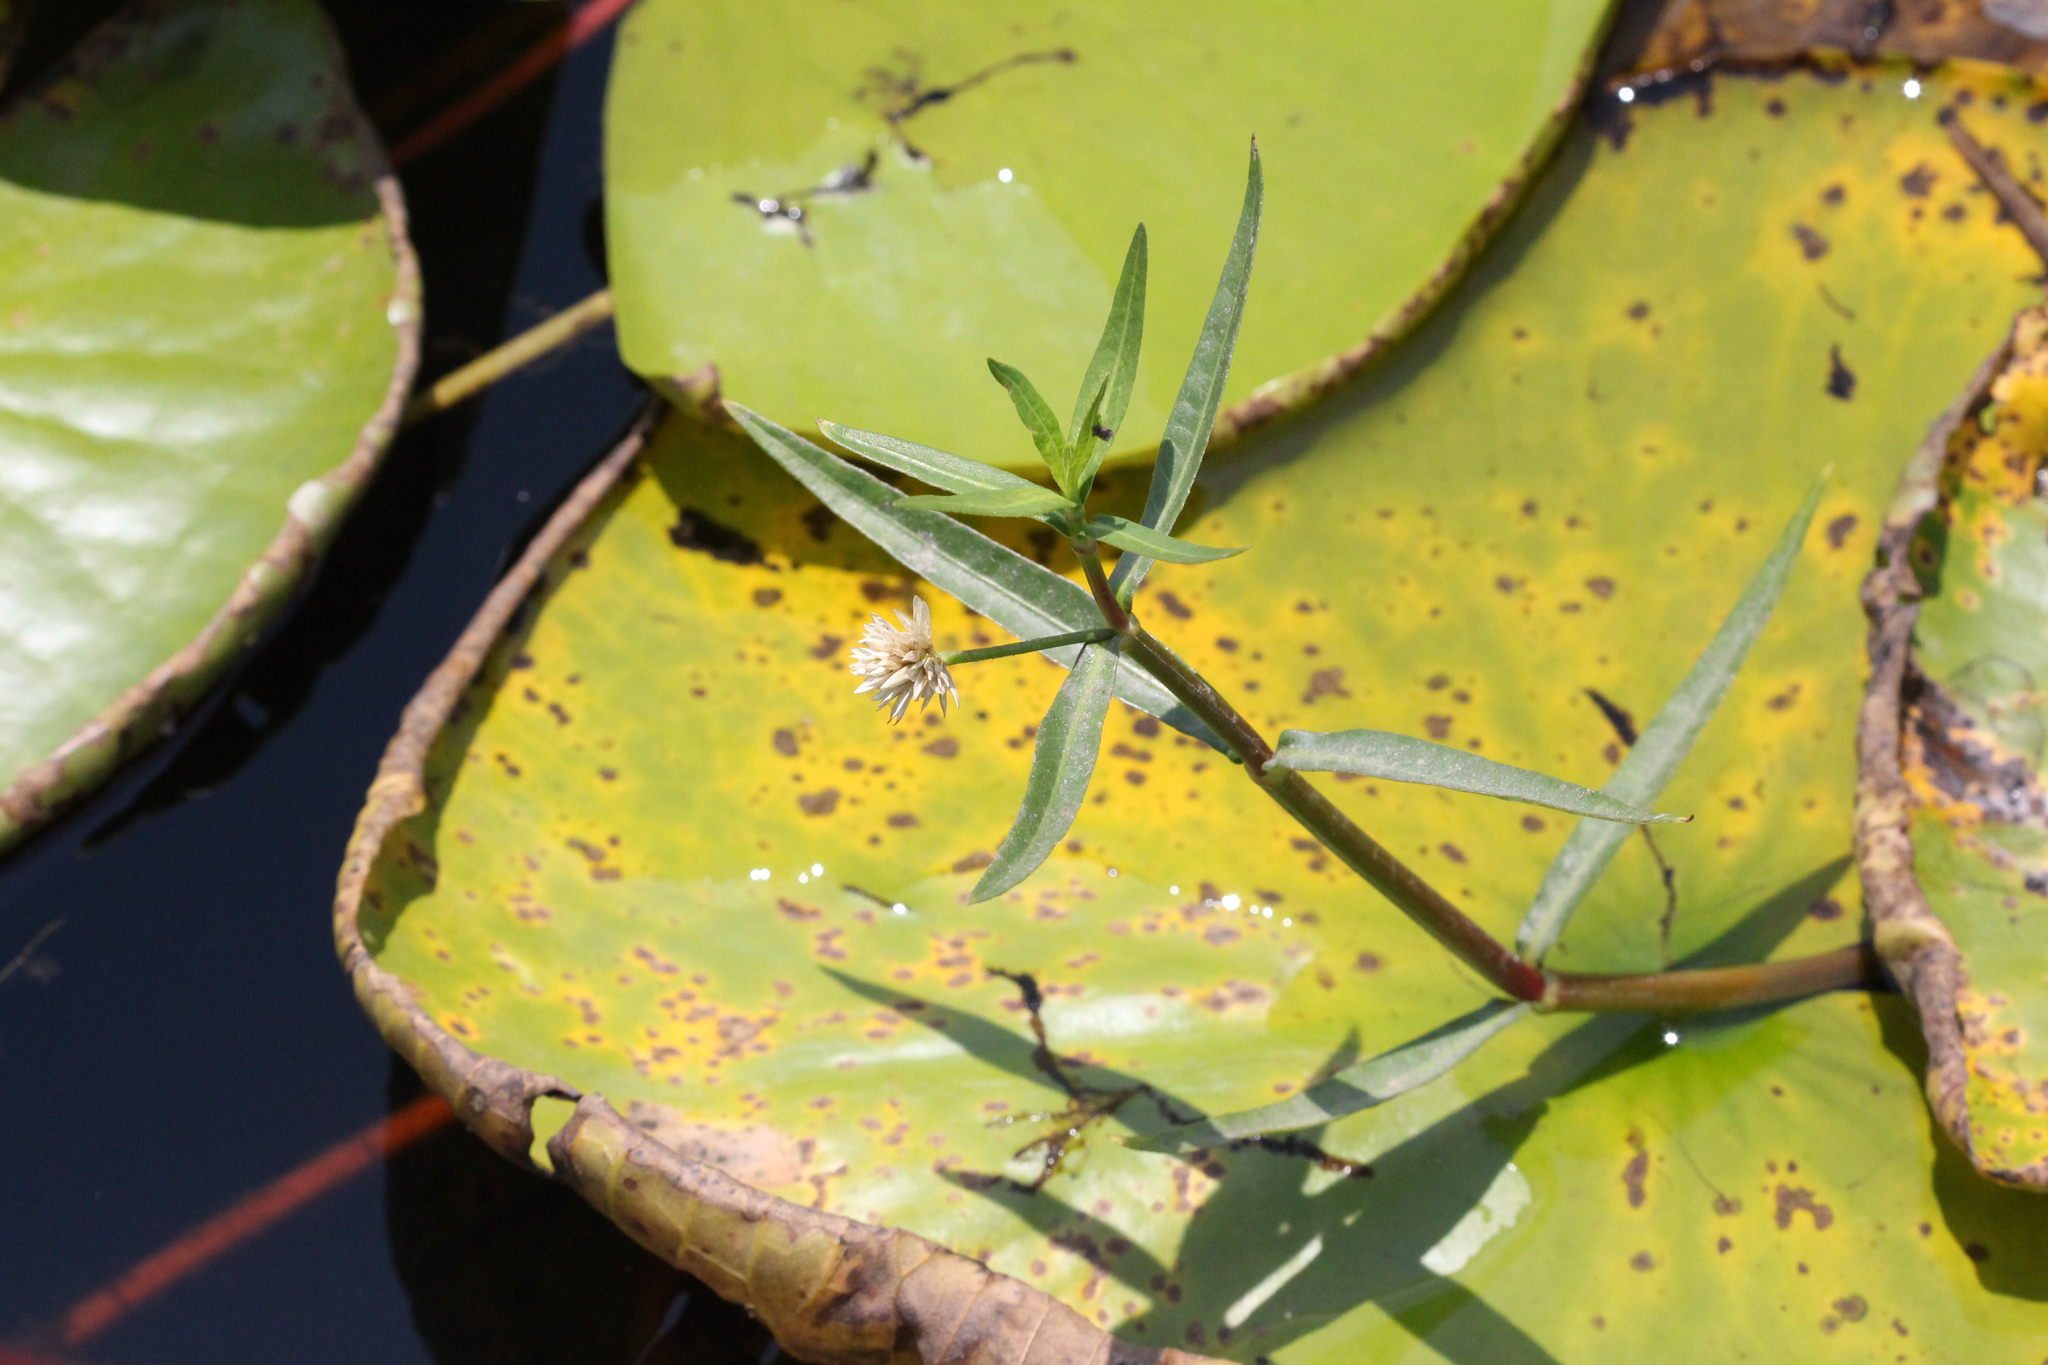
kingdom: Plantae
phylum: Tracheophyta
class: Magnoliopsida
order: Caryophyllales
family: Amaranthaceae
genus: Alternanthera
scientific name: Alternanthera philoxeroides
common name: Alligatorweed
